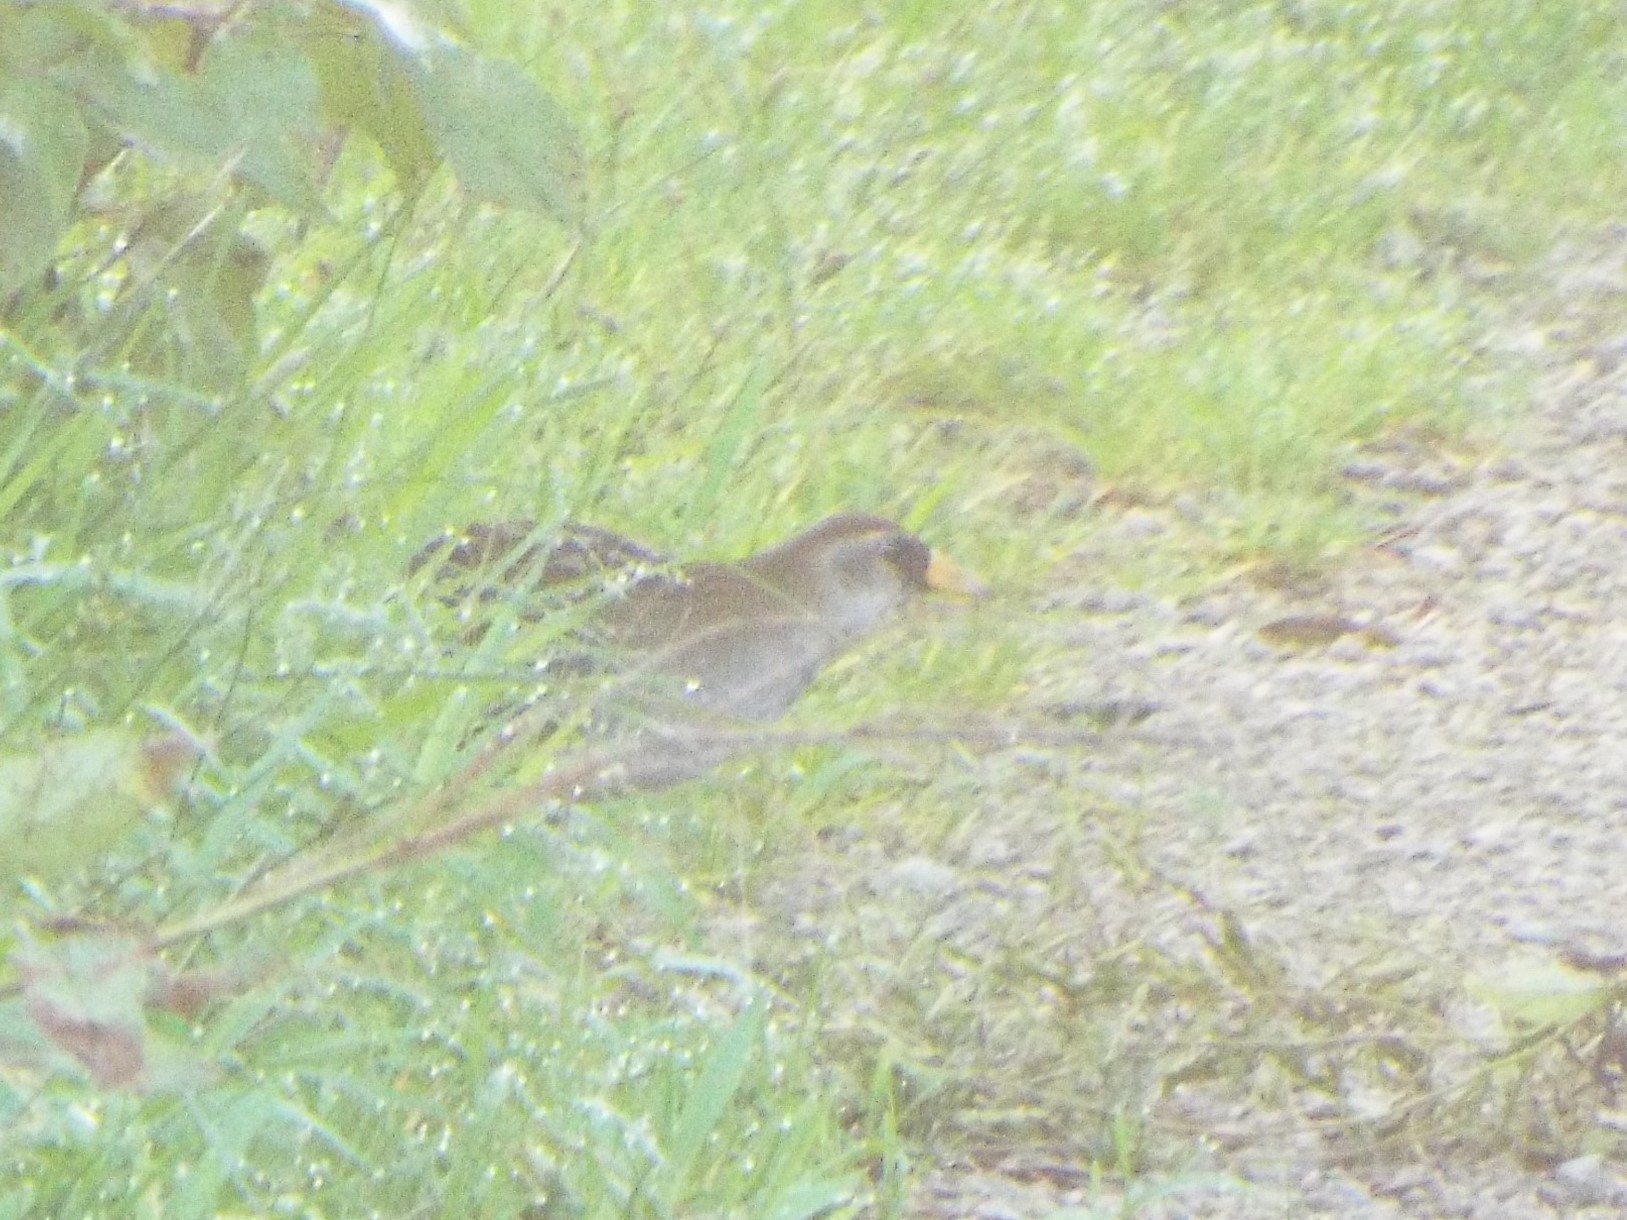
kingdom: Animalia
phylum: Chordata
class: Aves
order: Gruiformes
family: Rallidae
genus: Porzana
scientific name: Porzana carolina
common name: Sora
